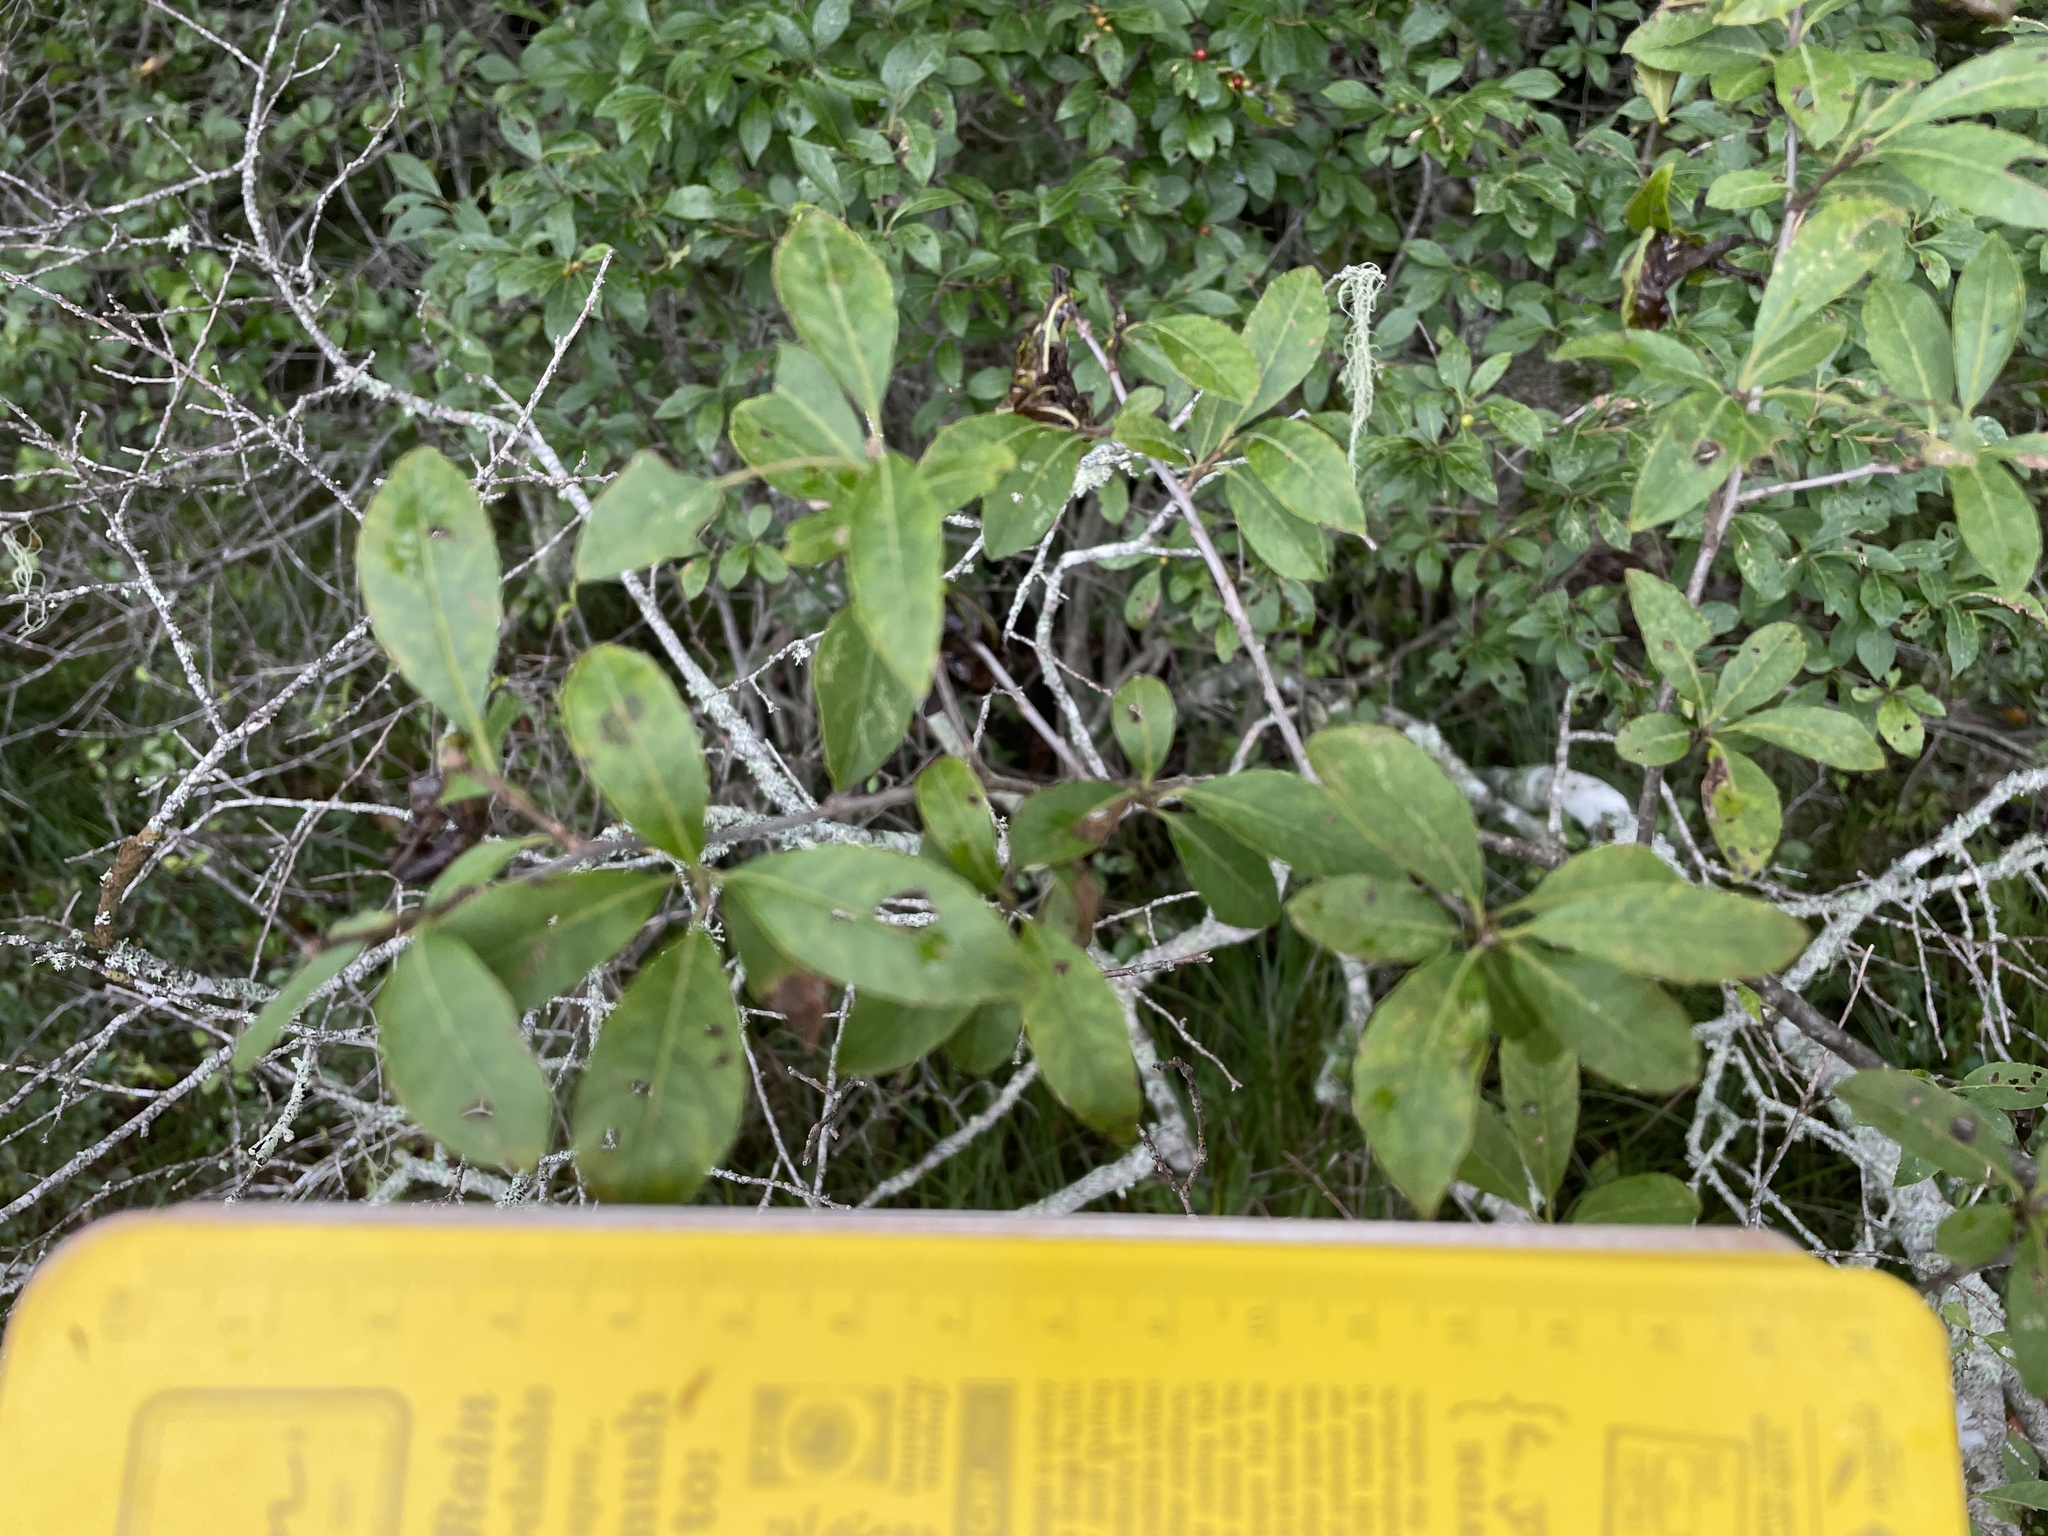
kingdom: Plantae
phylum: Tracheophyta
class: Magnoliopsida
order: Aquifoliales
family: Aquifoliaceae
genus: Ilex
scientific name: Ilex verticillata
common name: Virginia winterberry
